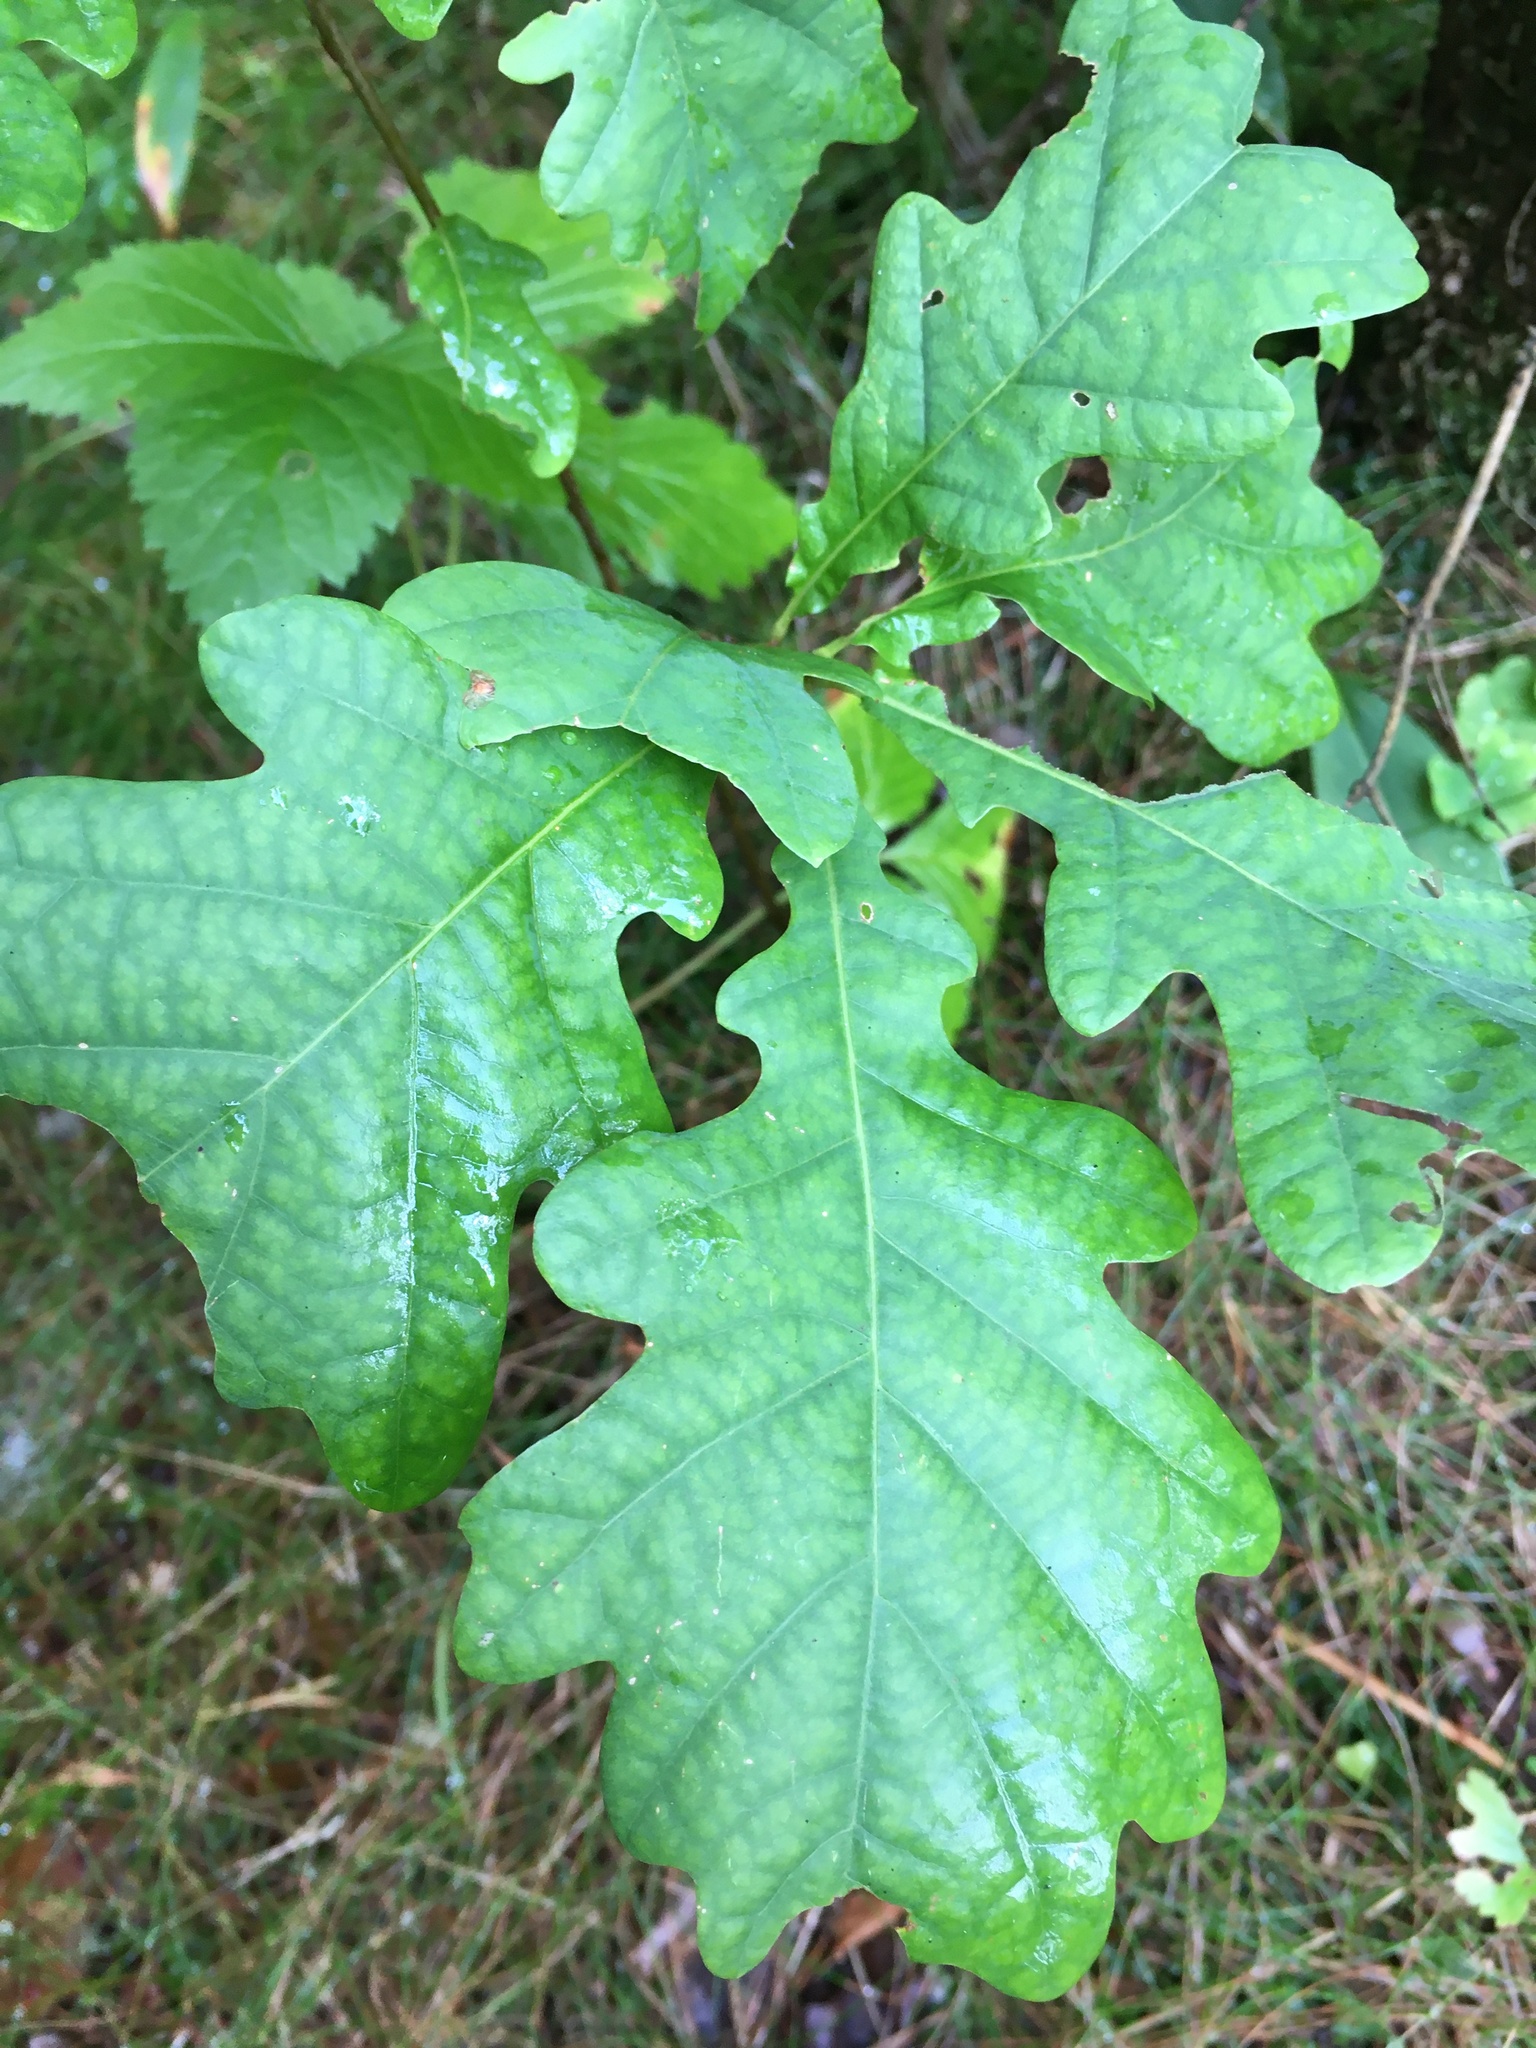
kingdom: Plantae
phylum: Tracheophyta
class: Magnoliopsida
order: Fagales
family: Fagaceae
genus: Quercus
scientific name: Quercus robur
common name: Pedunculate oak
